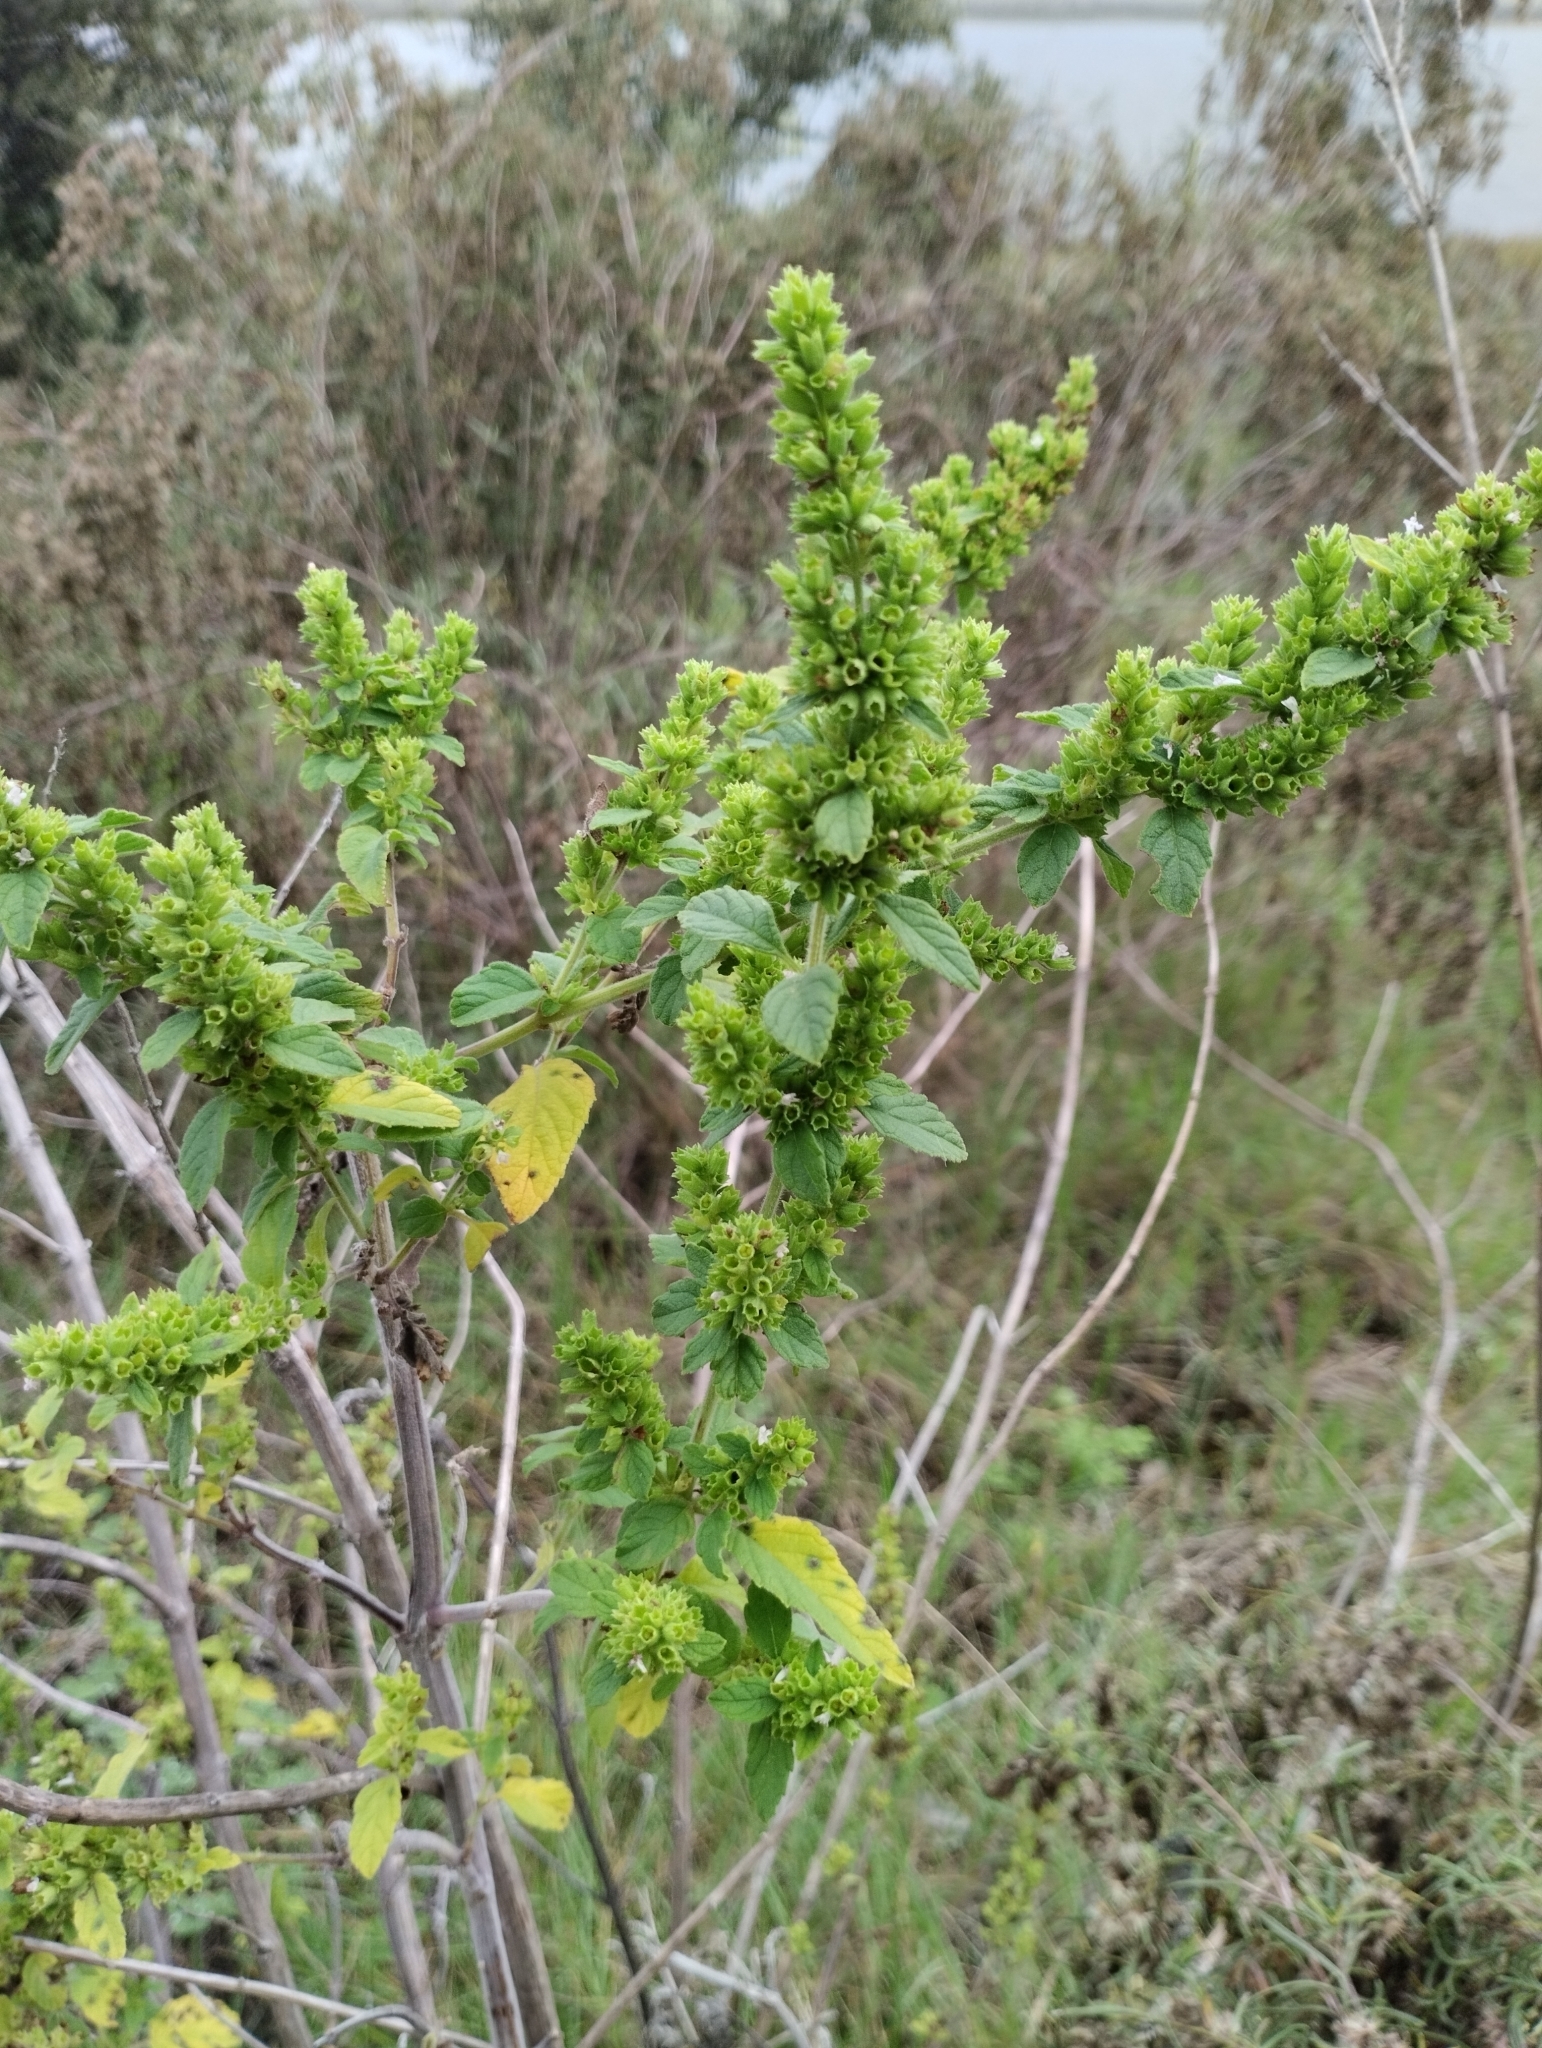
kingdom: Plantae
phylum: Tracheophyta
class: Magnoliopsida
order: Lamiales
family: Lamiaceae
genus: Condea
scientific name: Condea undulata
